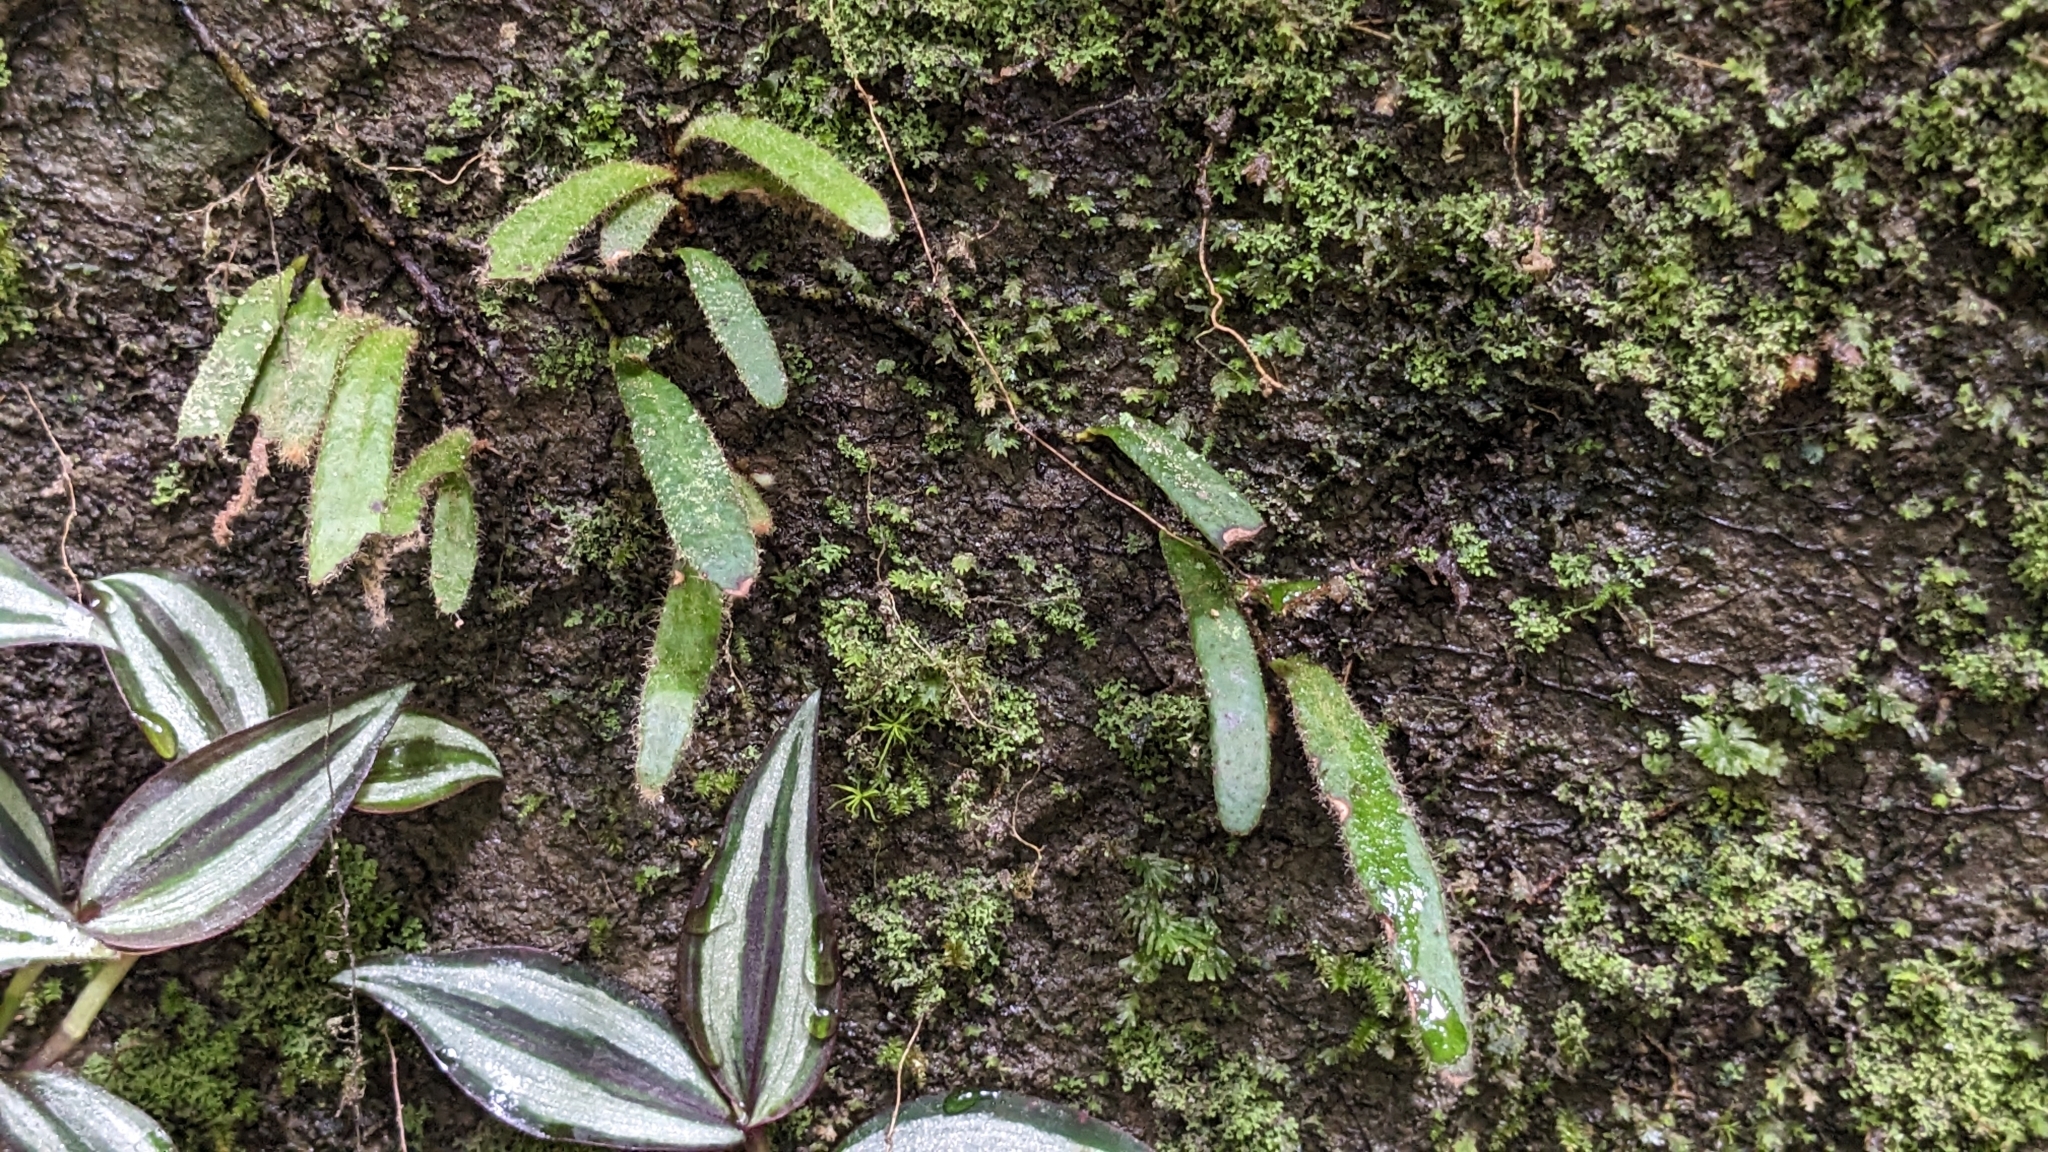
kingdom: Plantae
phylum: Tracheophyta
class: Polypodiopsida
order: Polypodiales
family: Polypodiaceae
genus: Pyrrosia
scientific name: Pyrrosia linearifolia
